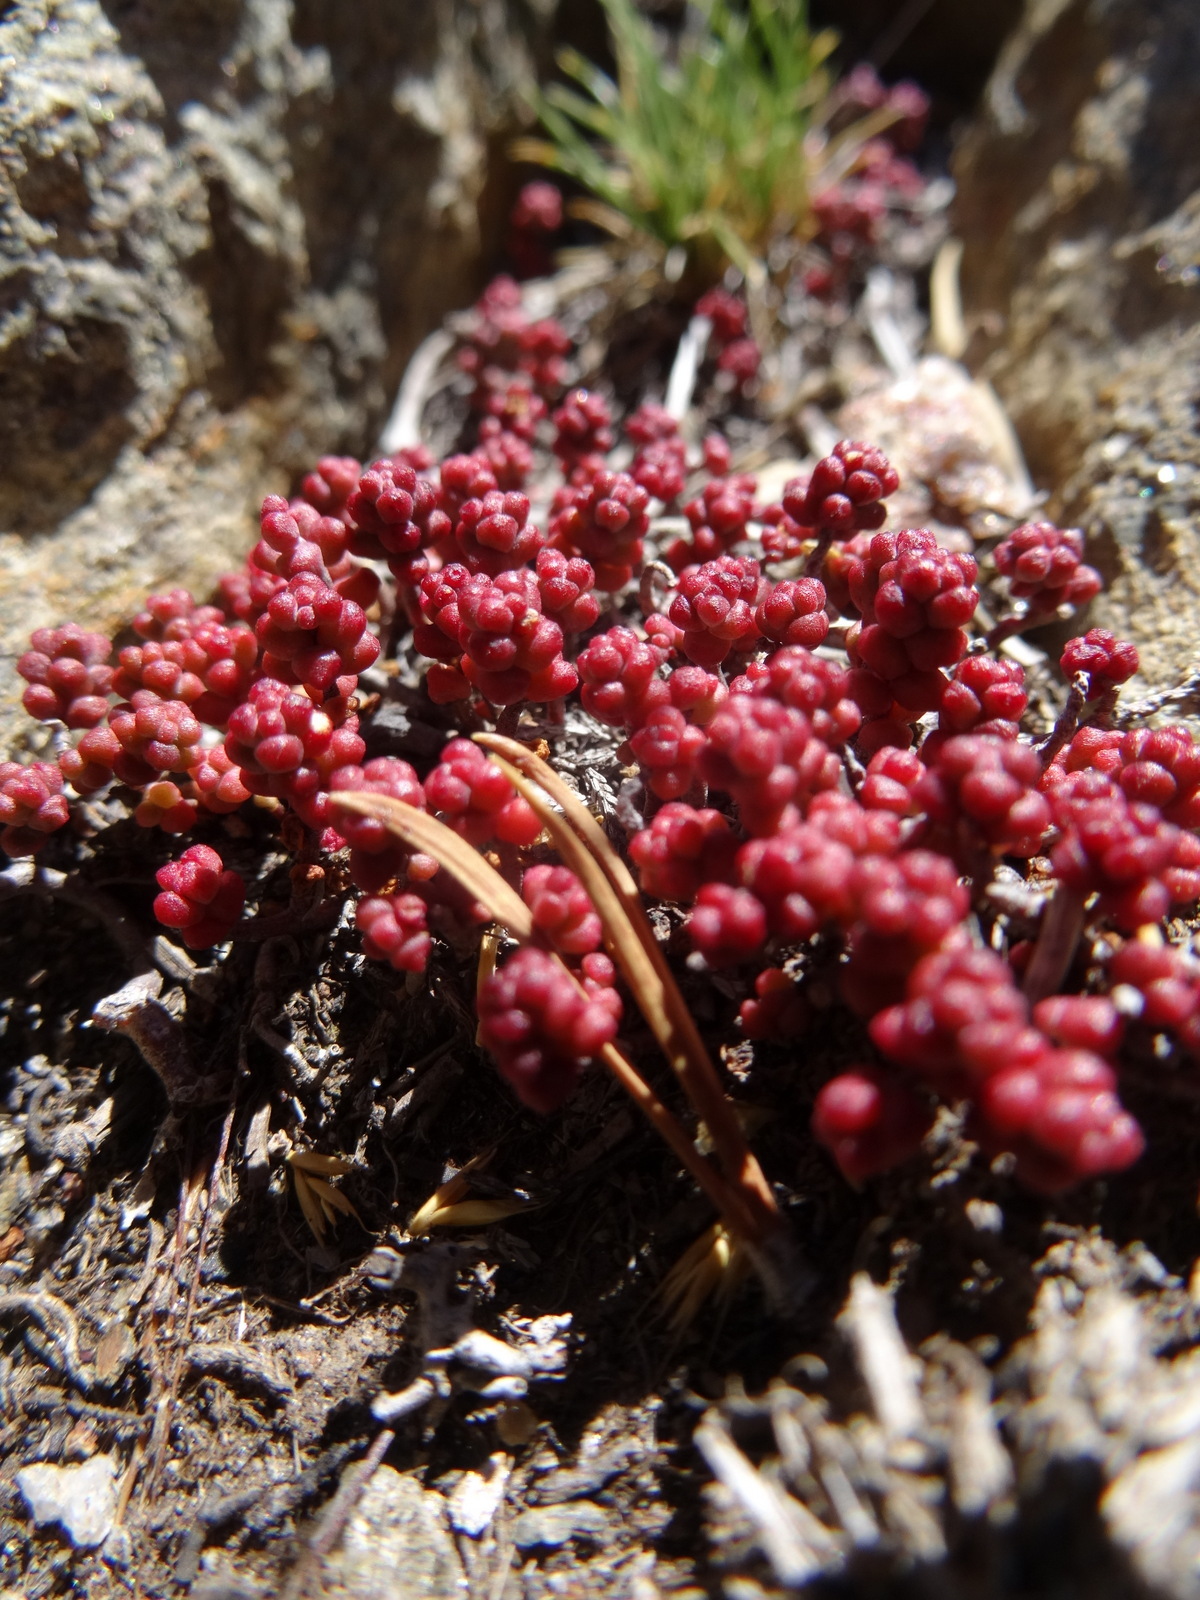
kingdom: Plantae
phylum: Tracheophyta
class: Magnoliopsida
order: Saxifragales
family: Crassulaceae
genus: Sedum
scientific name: Sedum brevifolium
